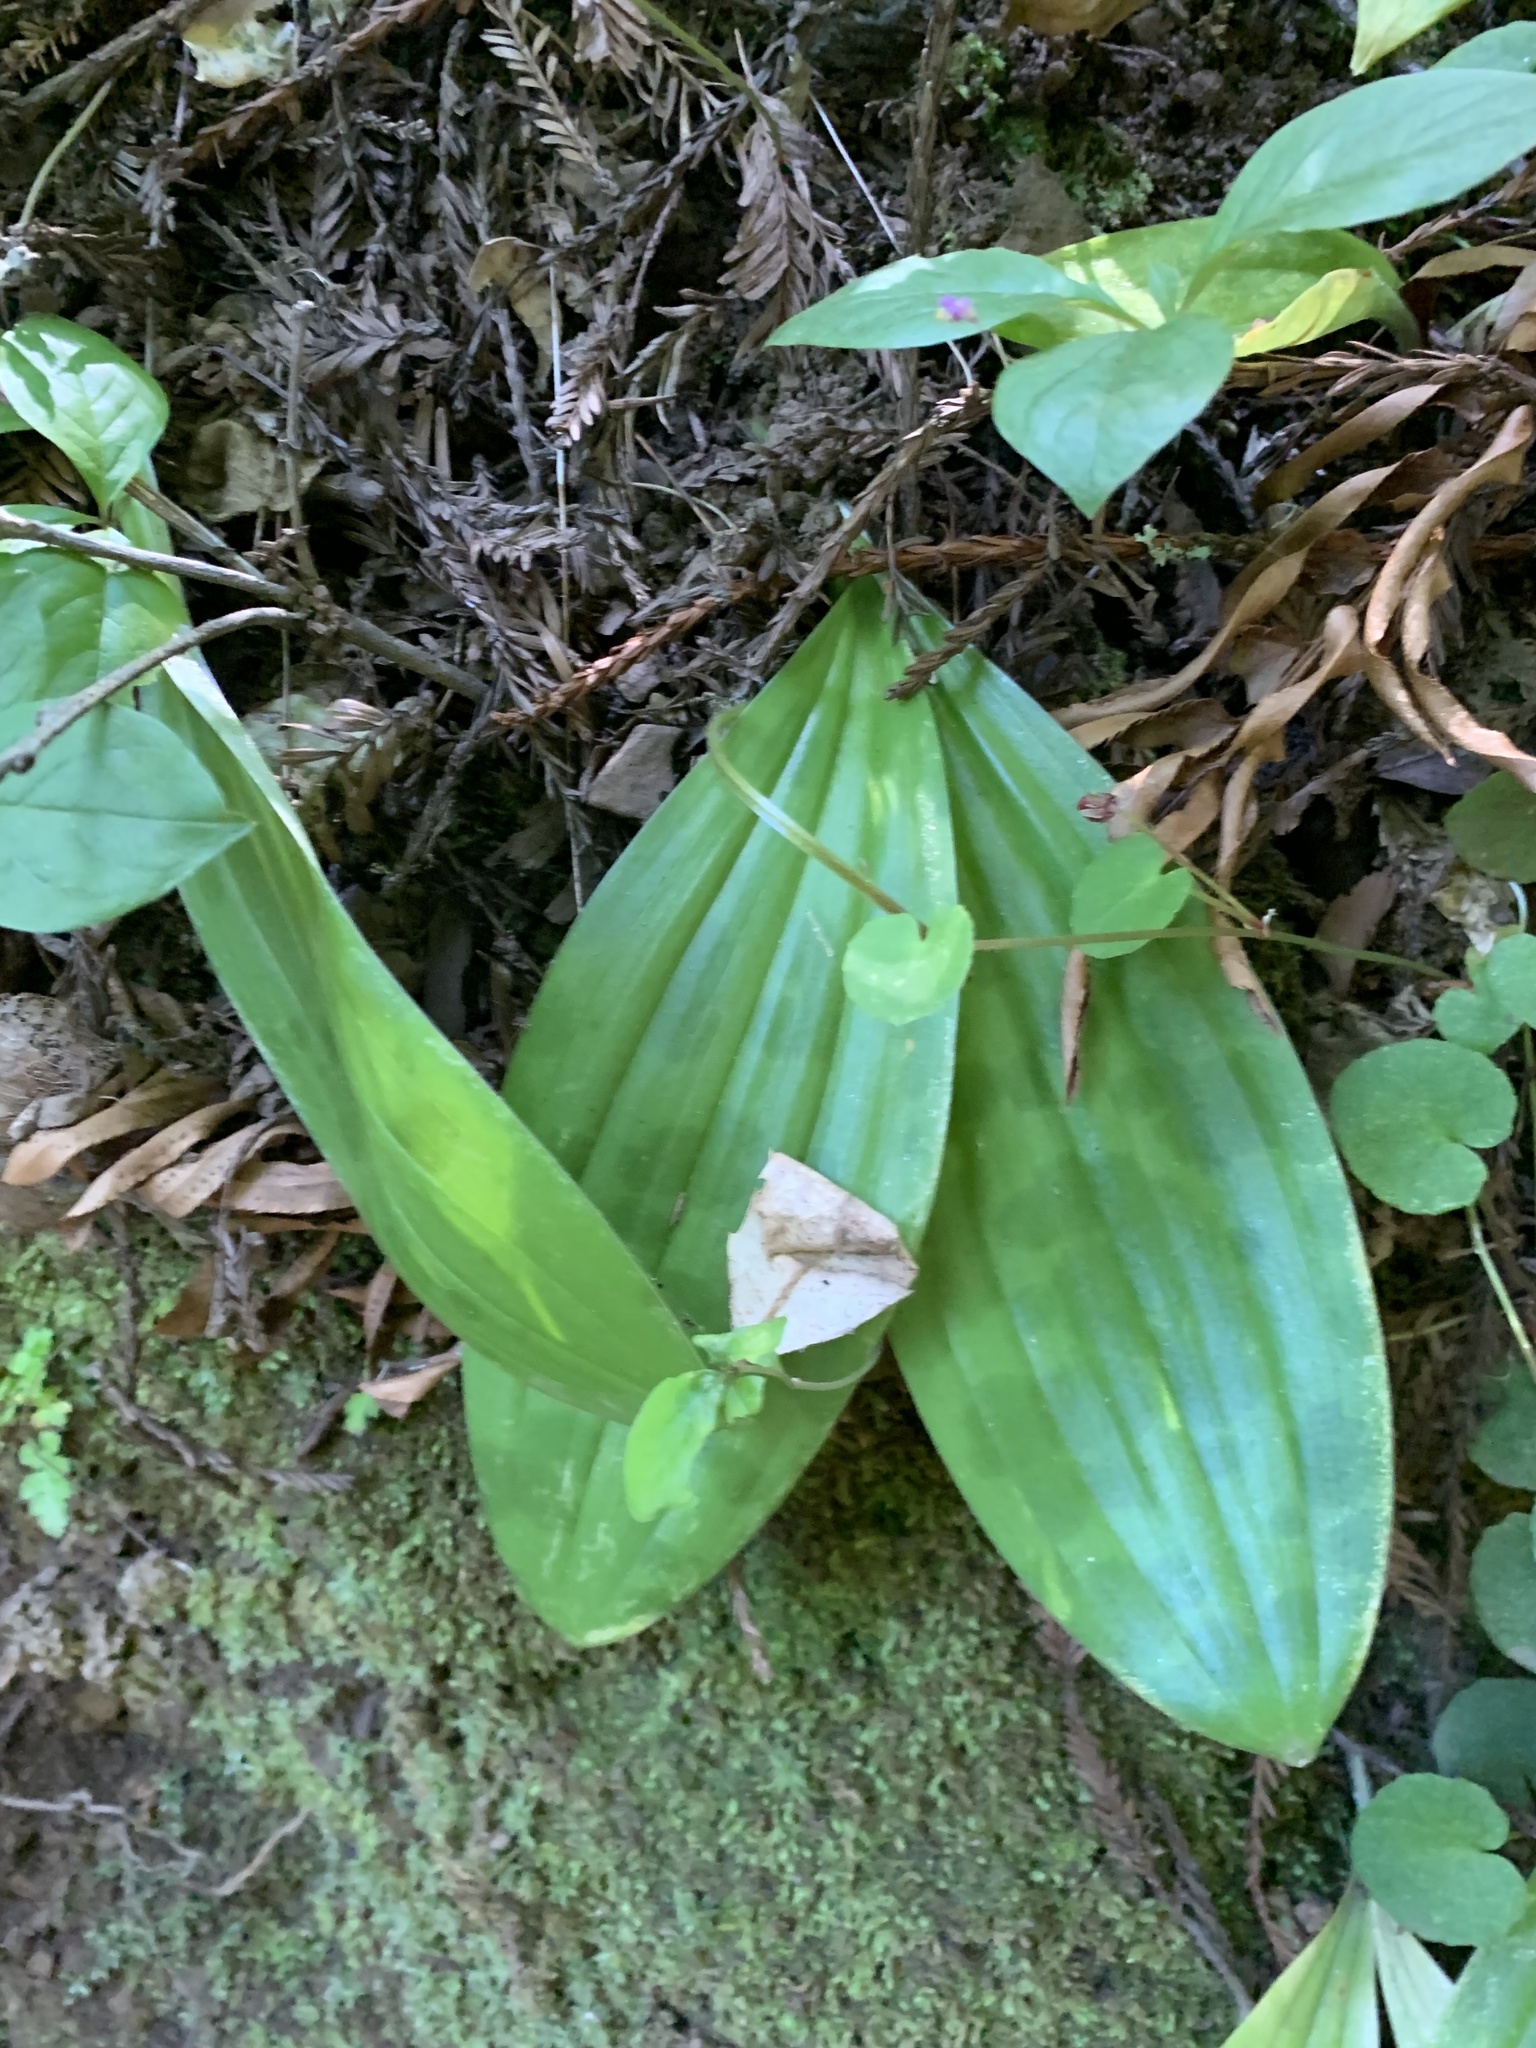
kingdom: Plantae
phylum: Tracheophyta
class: Liliopsida
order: Liliales
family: Liliaceae
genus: Scoliopus
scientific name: Scoliopus bigelovii
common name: Foetid adder's-tongue
